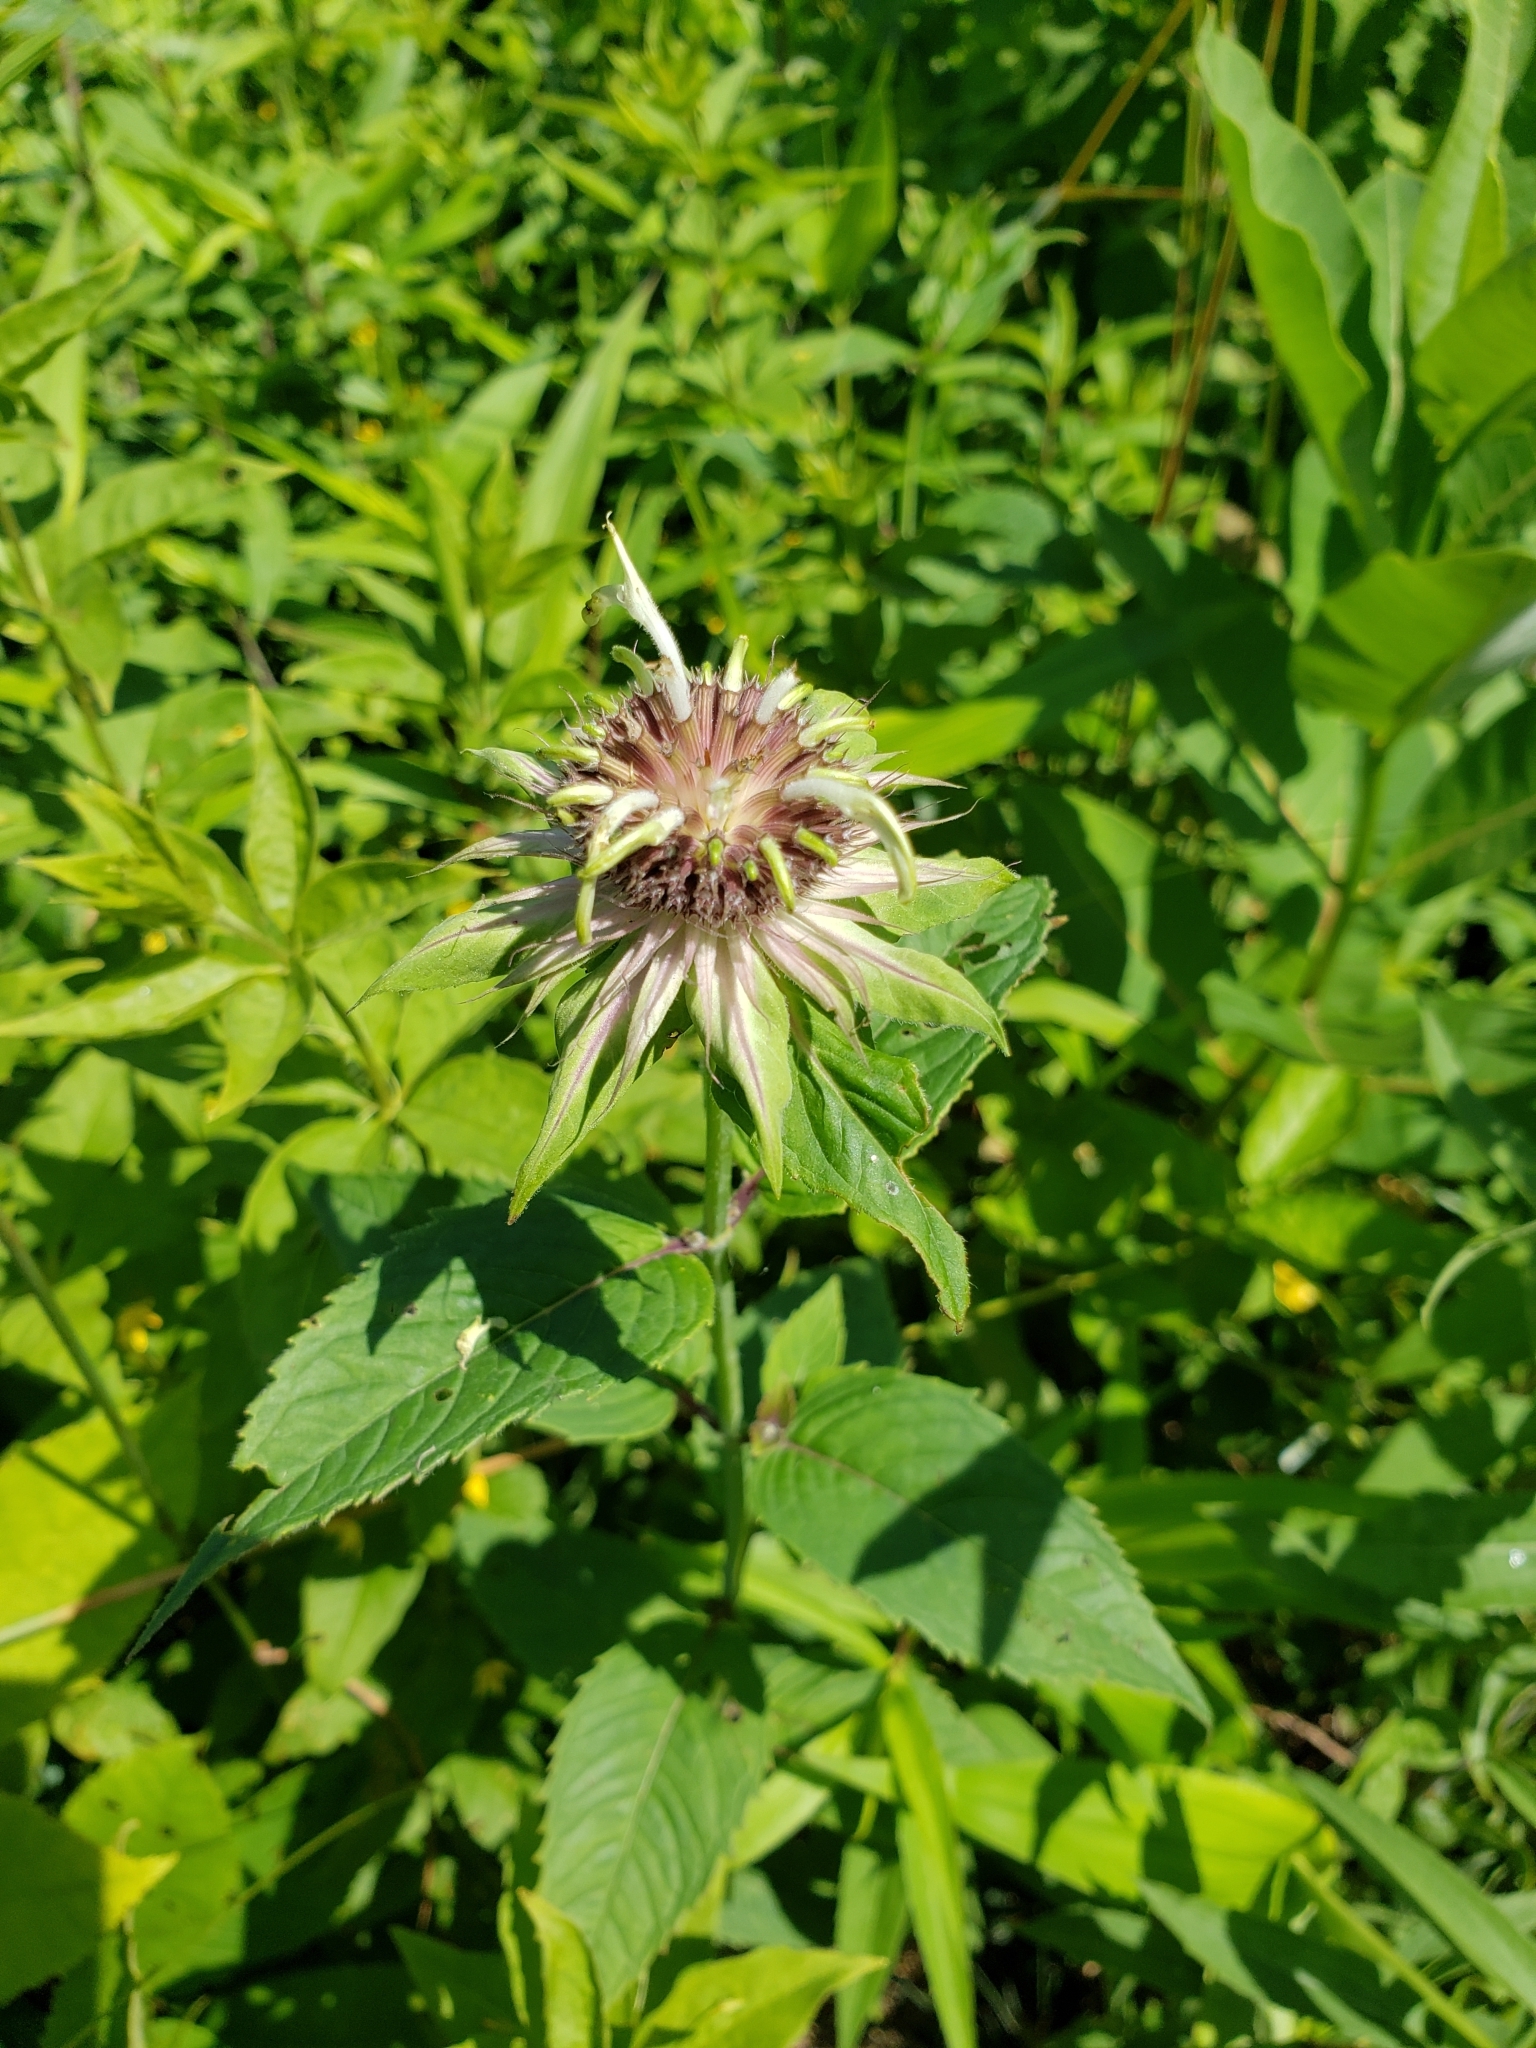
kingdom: Plantae
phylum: Tracheophyta
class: Magnoliopsida
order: Lamiales
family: Lamiaceae
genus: Monarda
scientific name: Monarda clinopodia
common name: Basil beebalm
